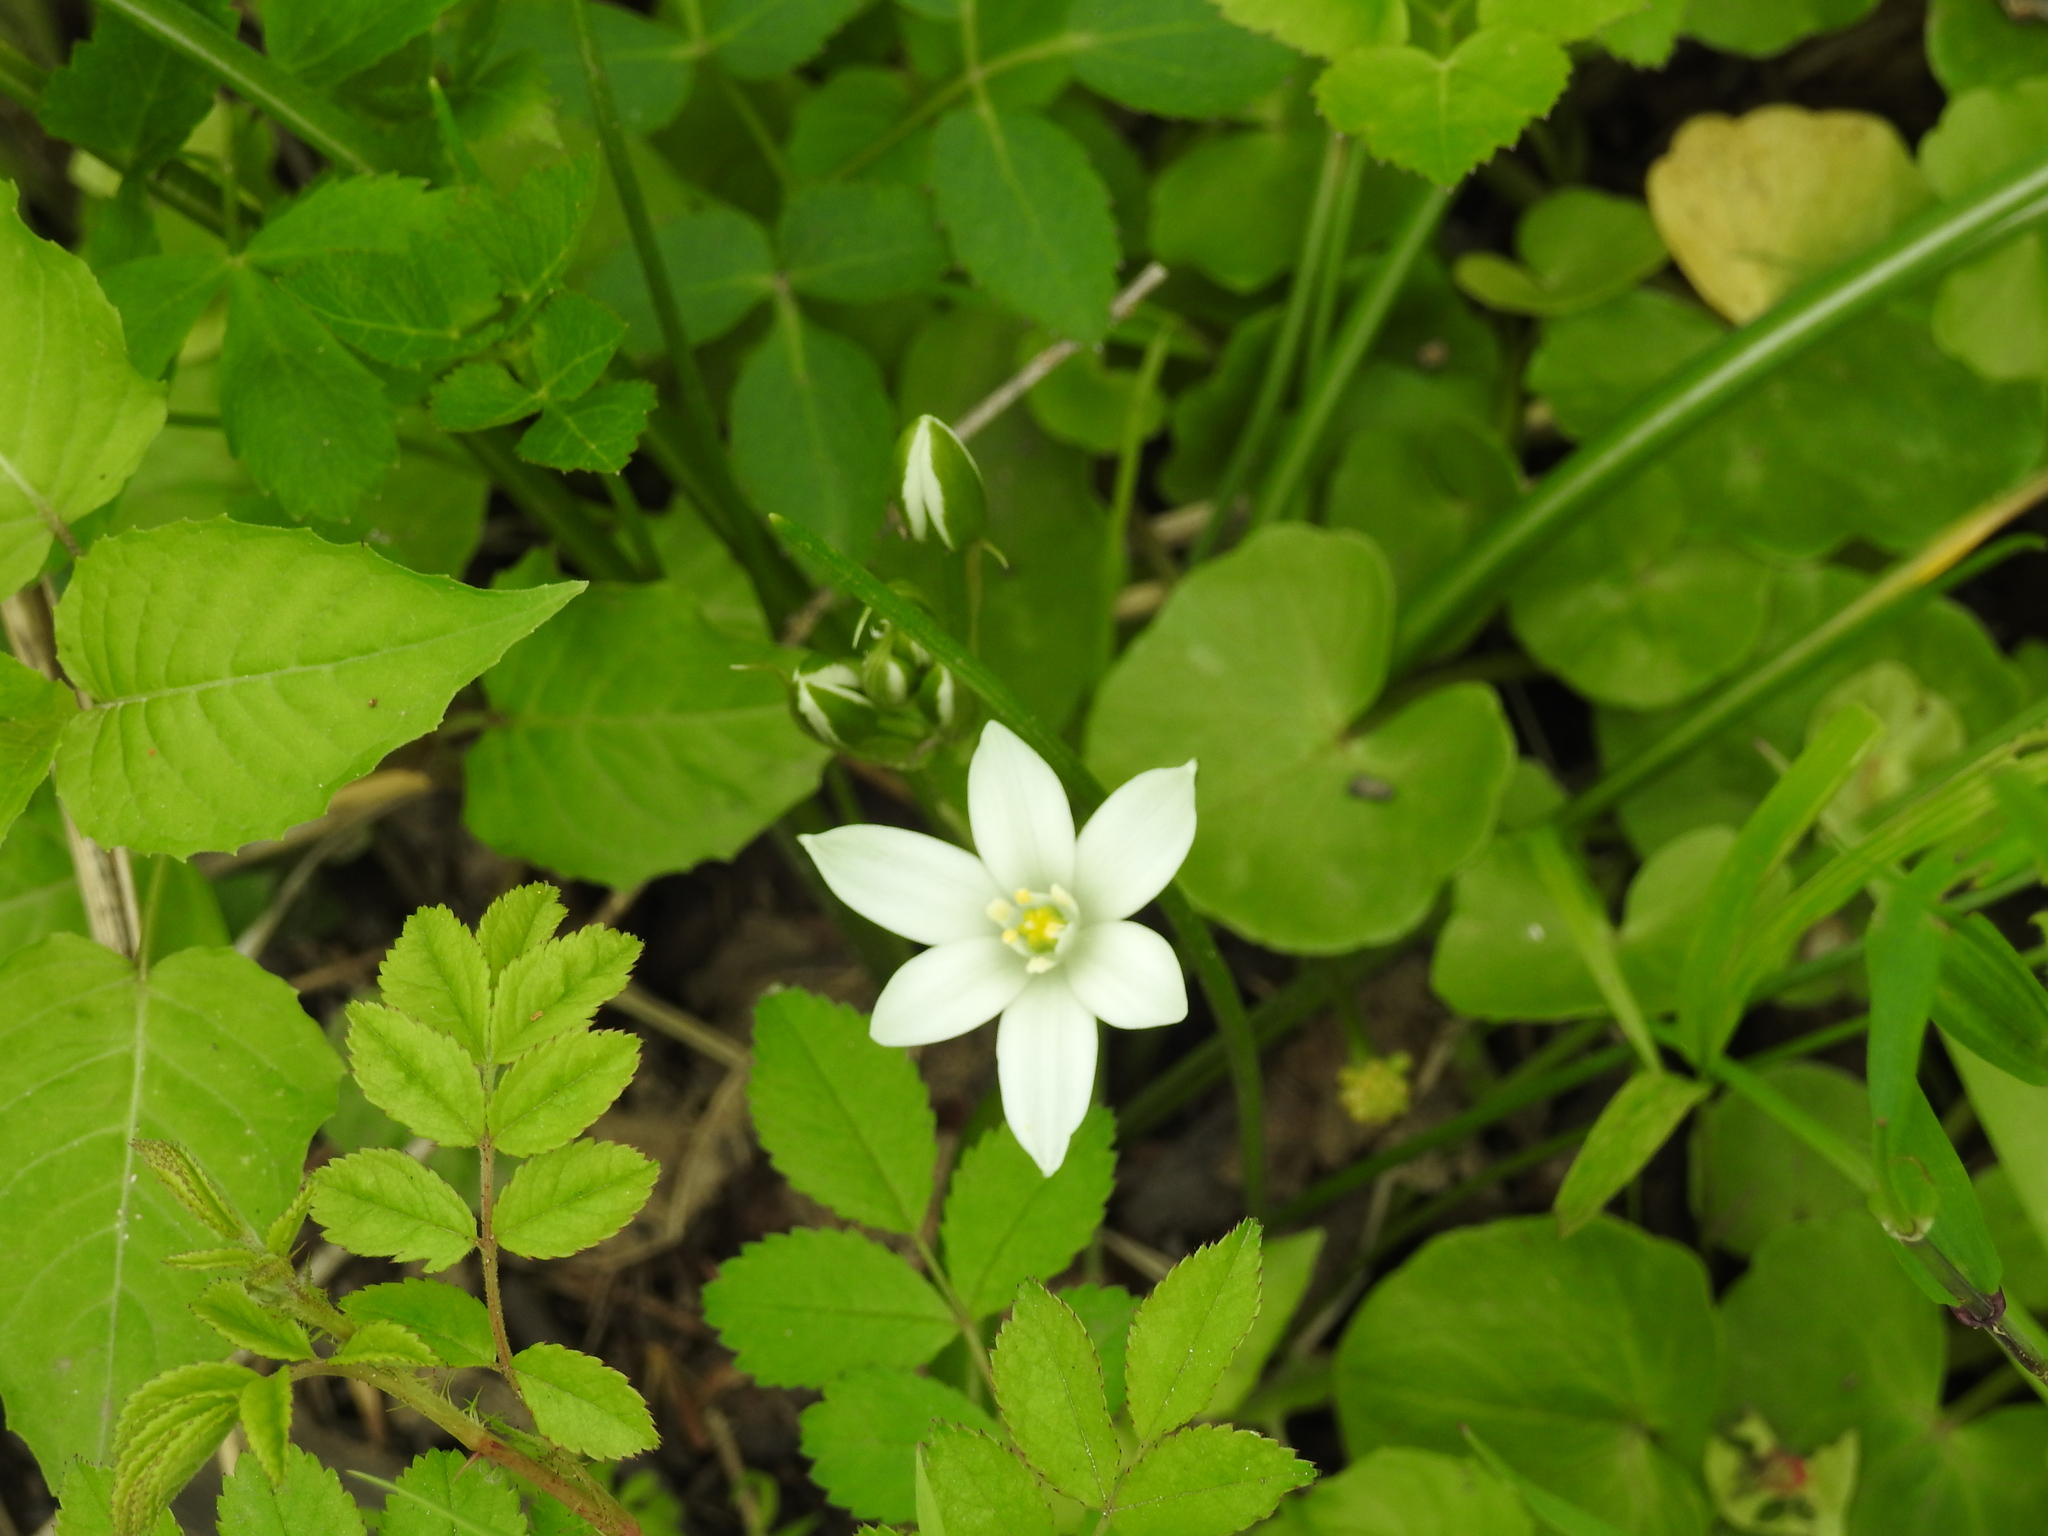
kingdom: Plantae
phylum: Tracheophyta
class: Liliopsida
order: Asparagales
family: Asparagaceae
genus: Ornithogalum
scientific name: Ornithogalum umbellatum
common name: Garden star-of-bethlehem
